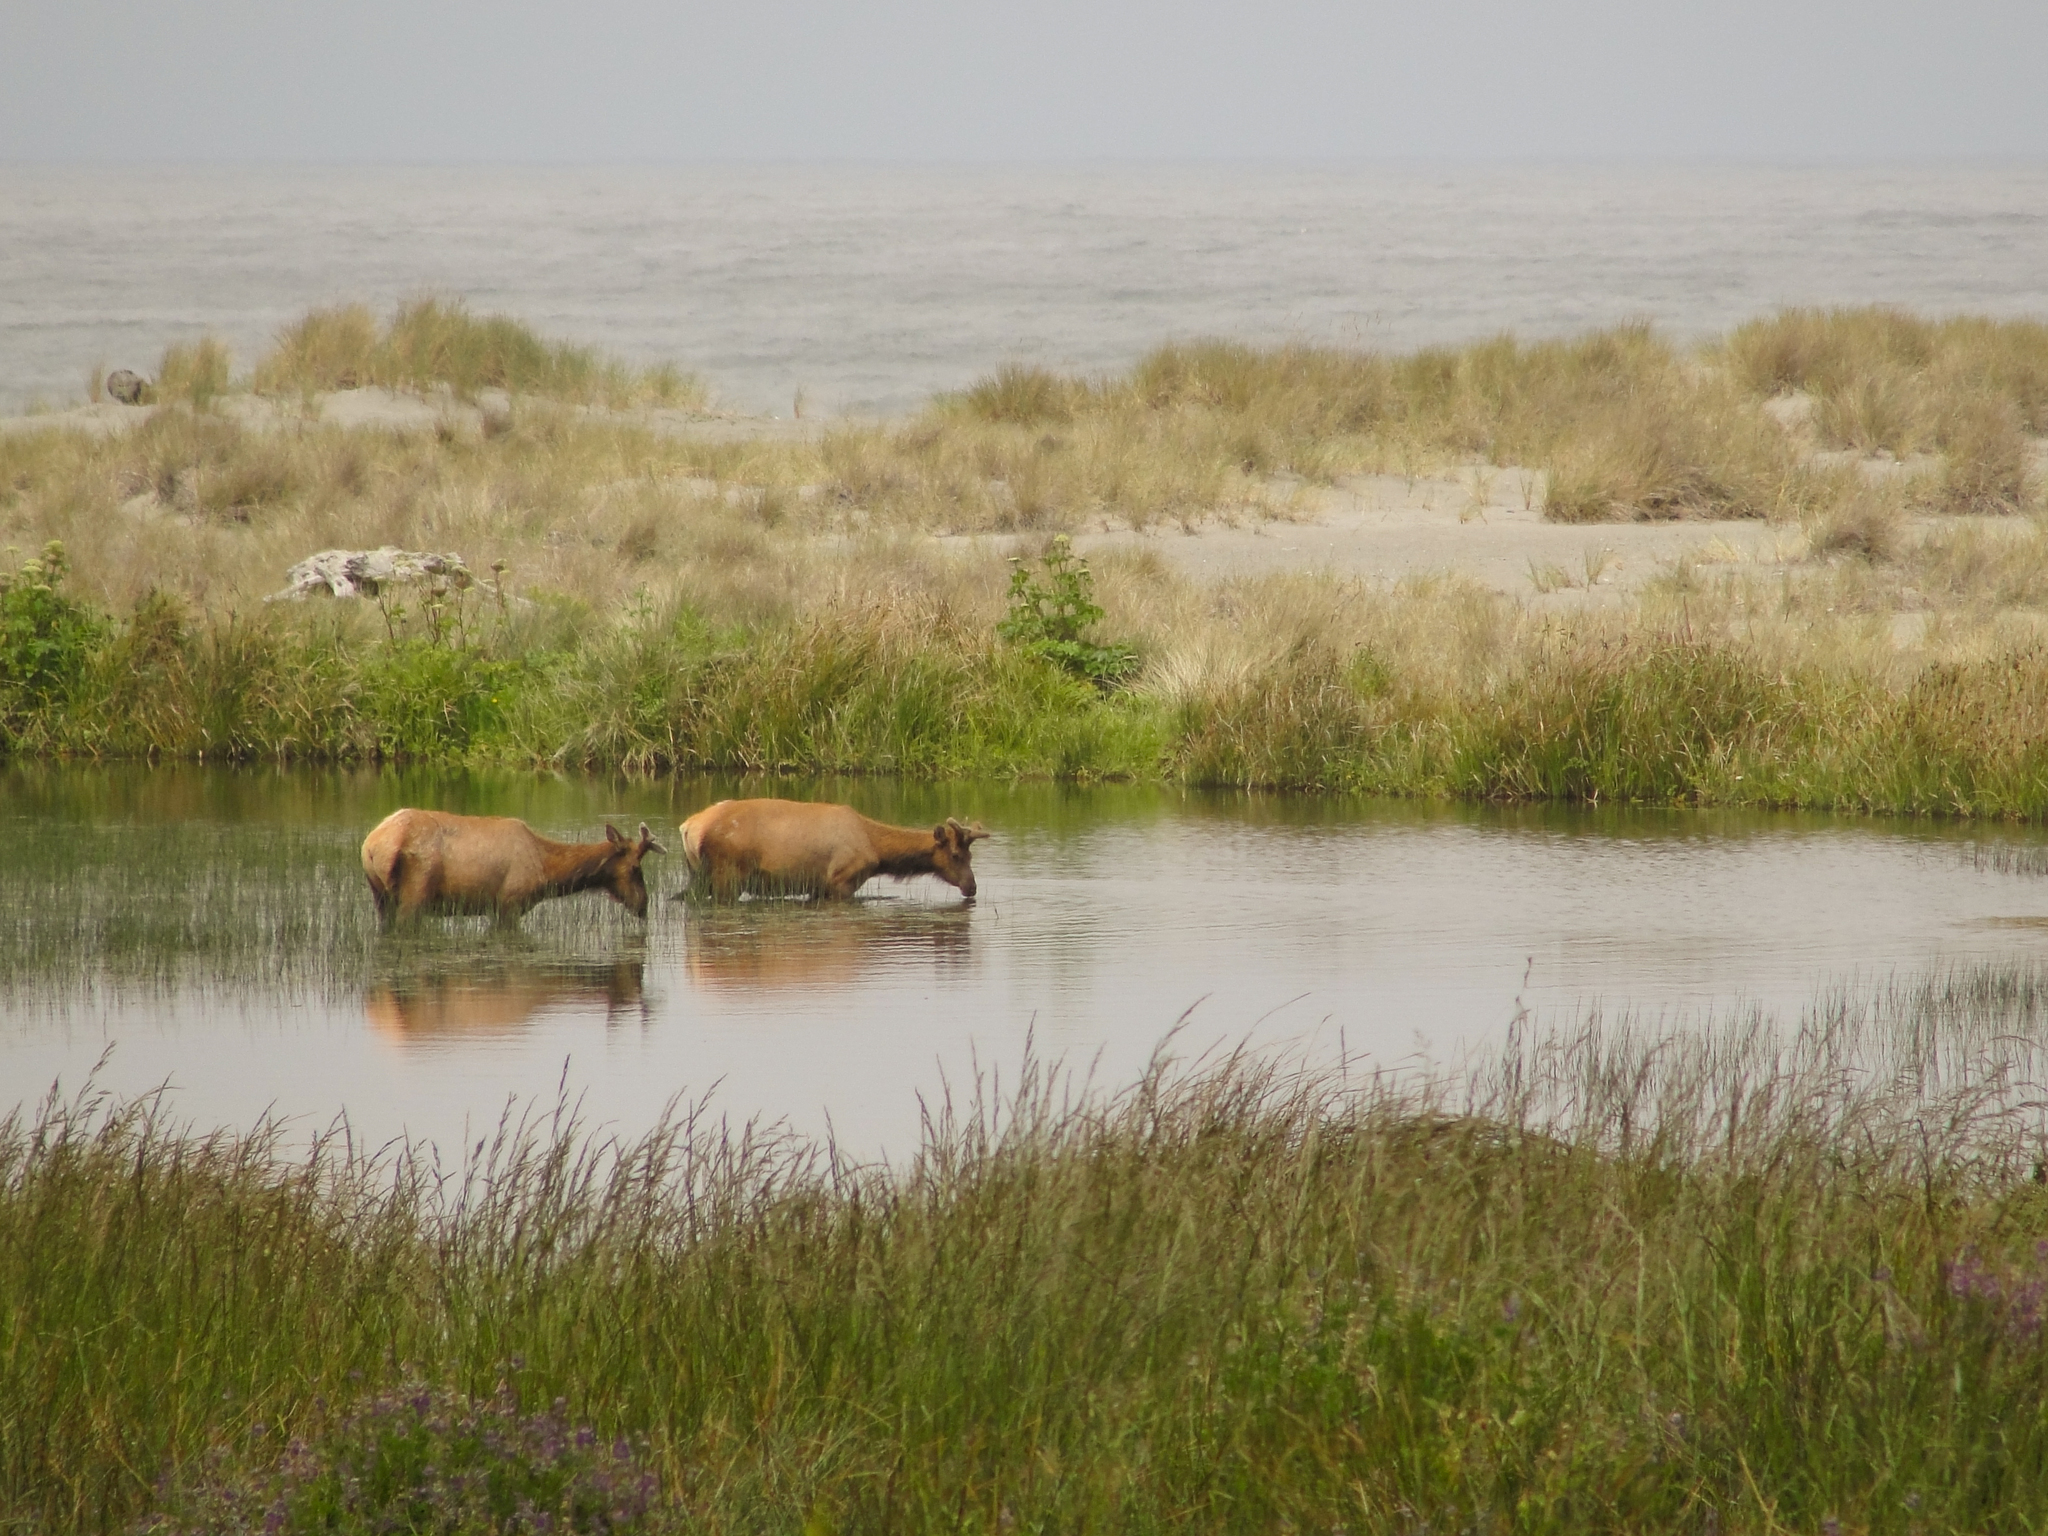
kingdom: Animalia
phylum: Chordata
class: Mammalia
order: Artiodactyla
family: Cervidae
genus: Cervus
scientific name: Cervus elaphus
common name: Red deer
